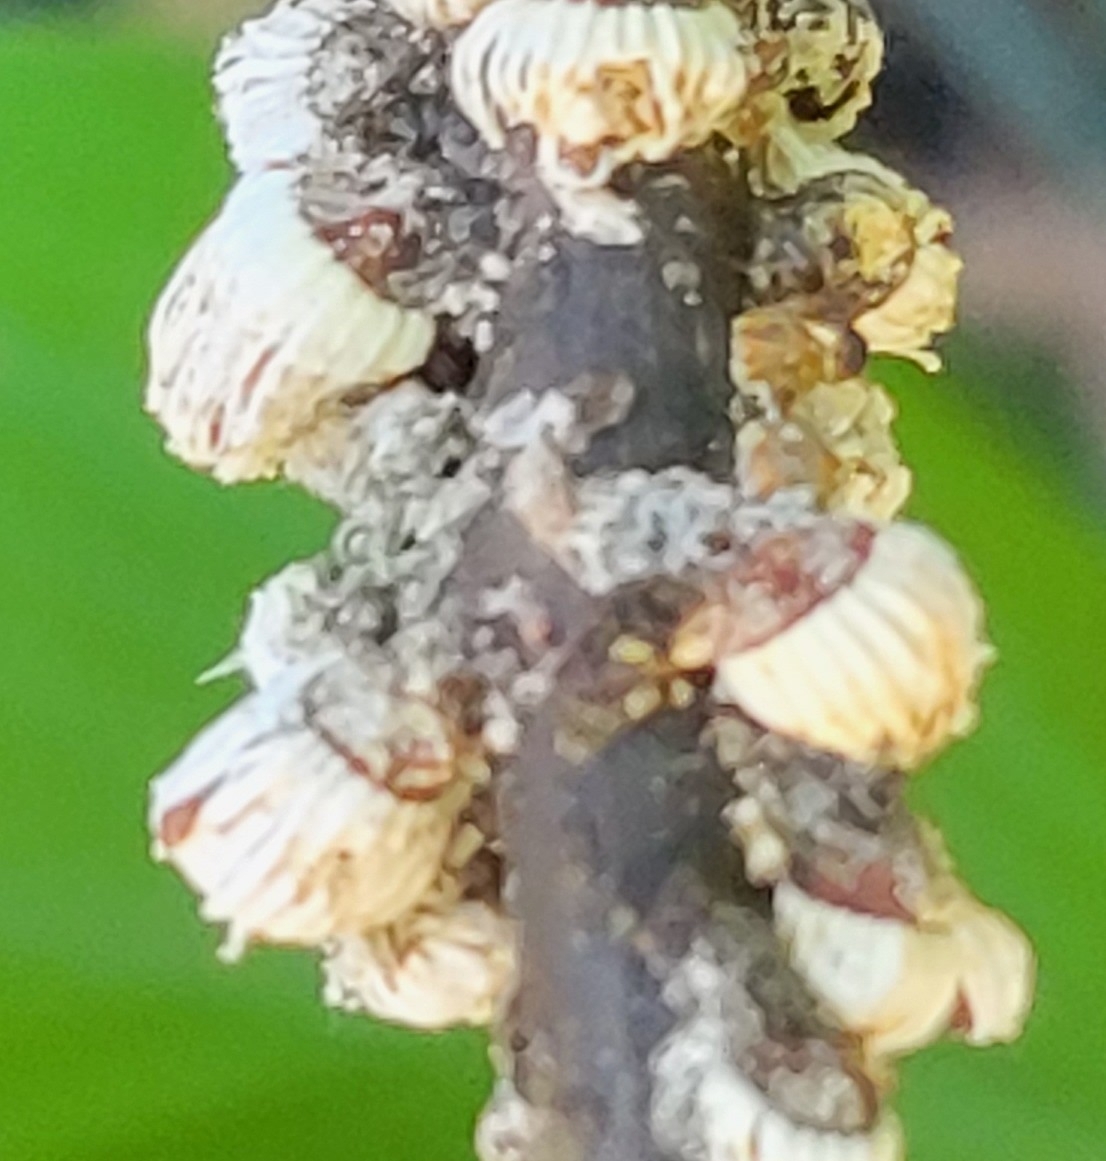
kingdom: Animalia
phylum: Arthropoda
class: Insecta
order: Hemiptera
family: Margarodidae
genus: Icerya
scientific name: Icerya purchasi
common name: Cottony cushion scale
